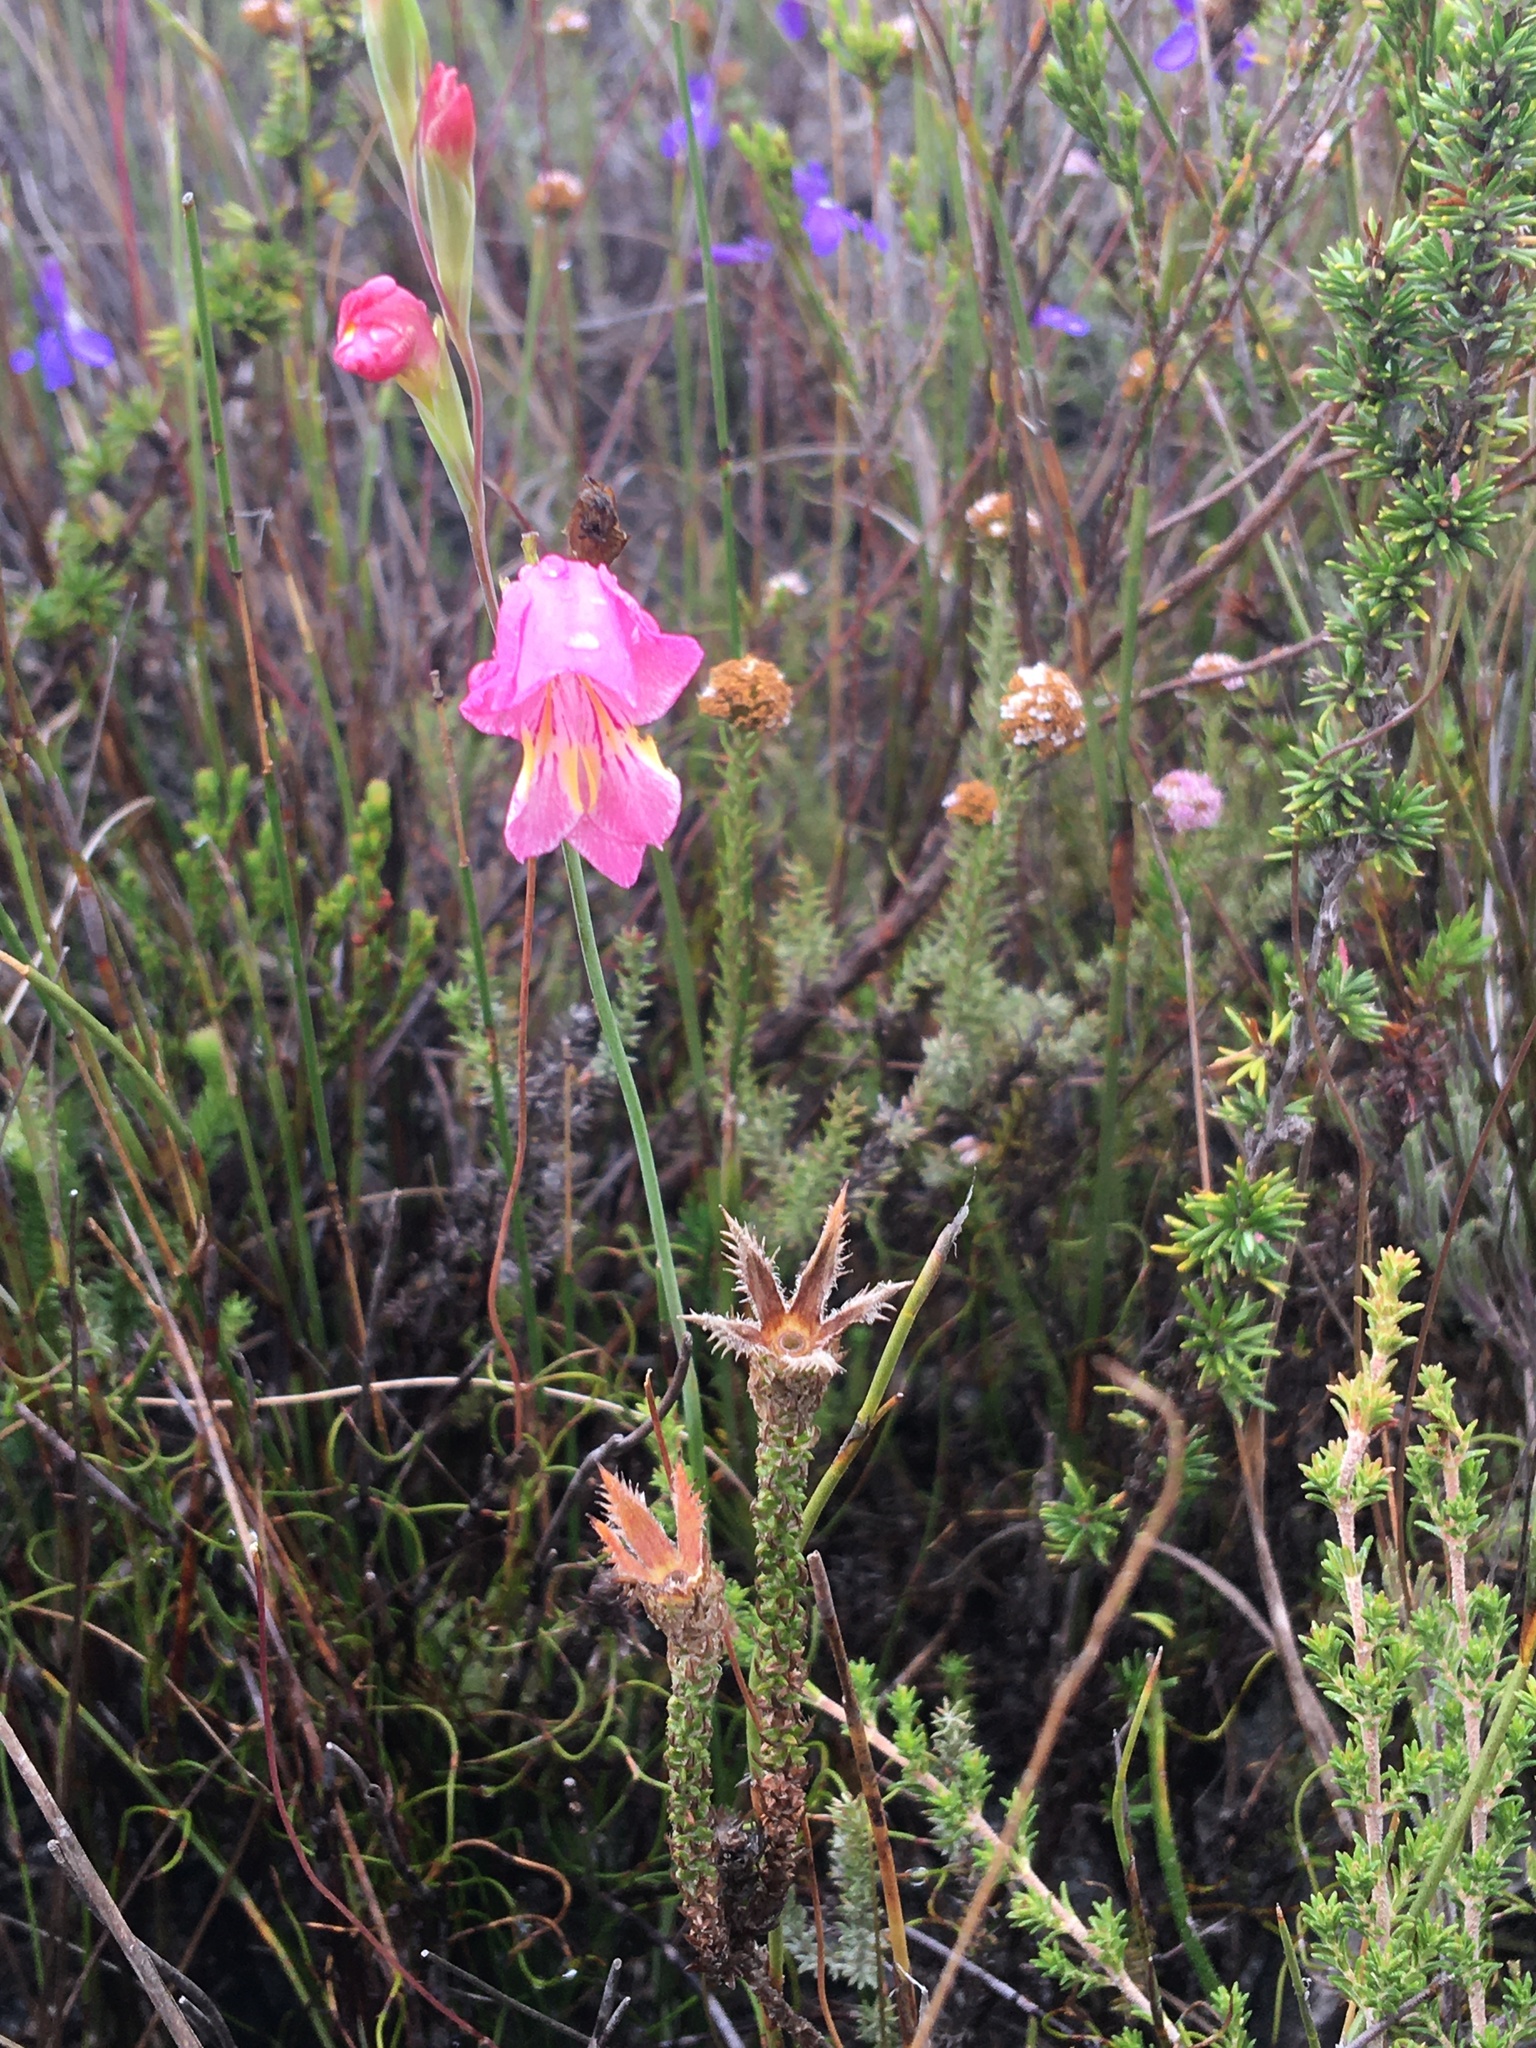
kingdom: Plantae
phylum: Tracheophyta
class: Liliopsida
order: Asparagales
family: Iridaceae
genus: Gladiolus
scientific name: Gladiolus brevifolius
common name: March pypie
